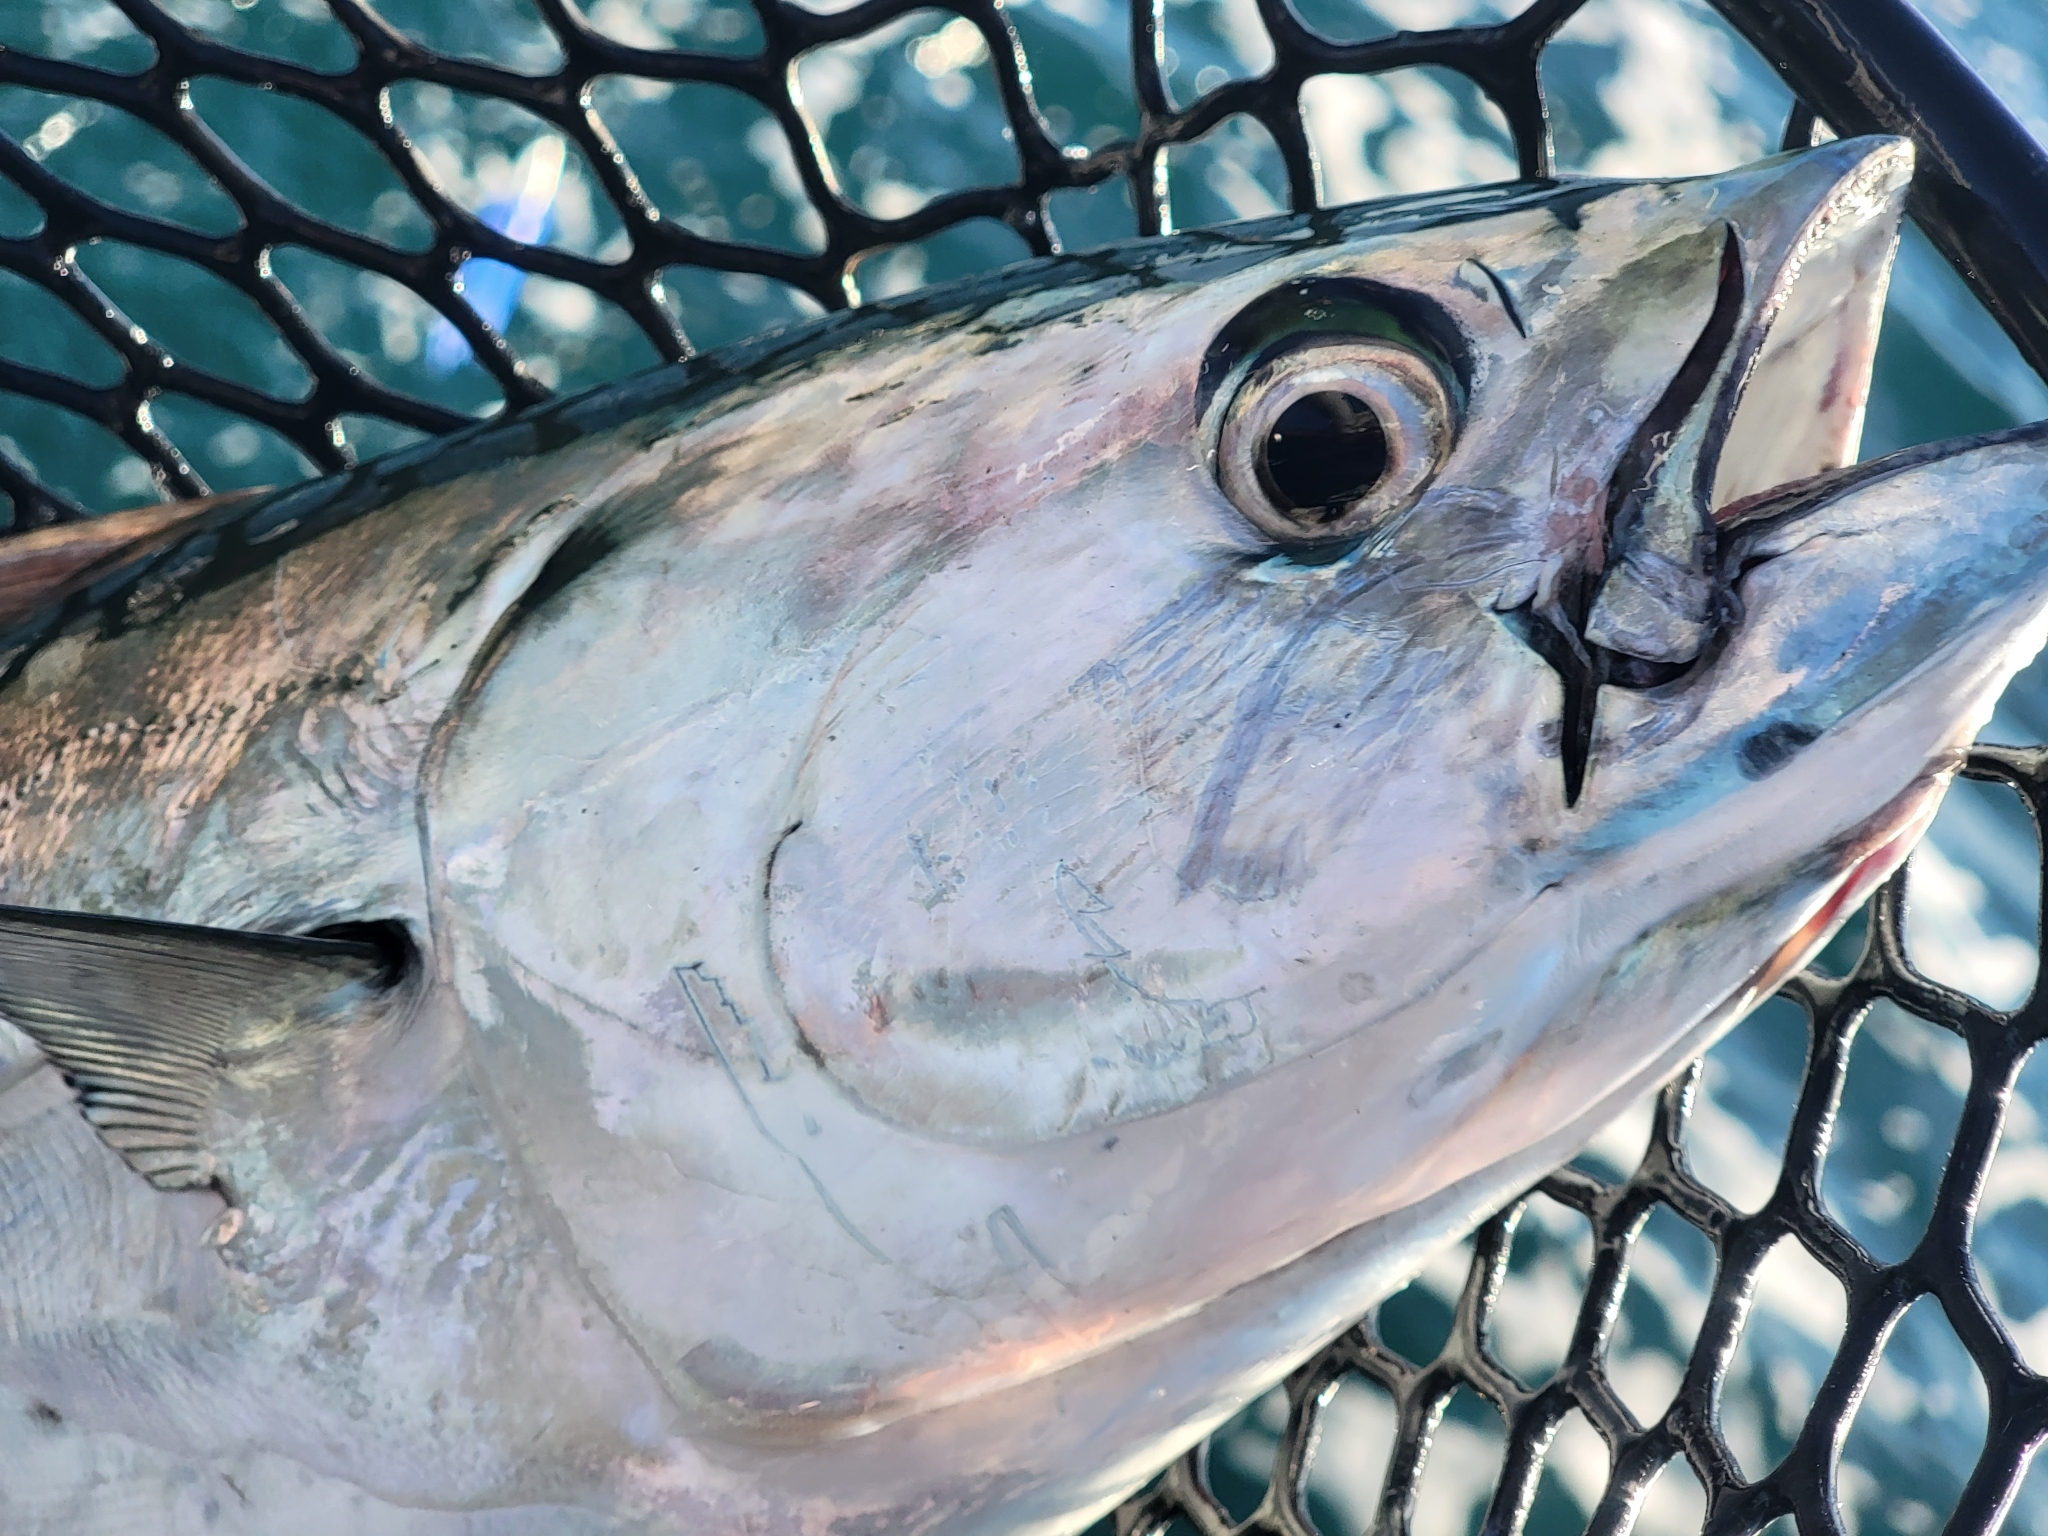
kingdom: Animalia
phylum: Chordata
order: Perciformes
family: Scombridae
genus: Euthynnus
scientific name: Euthynnus alletteratus
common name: Little tunny
